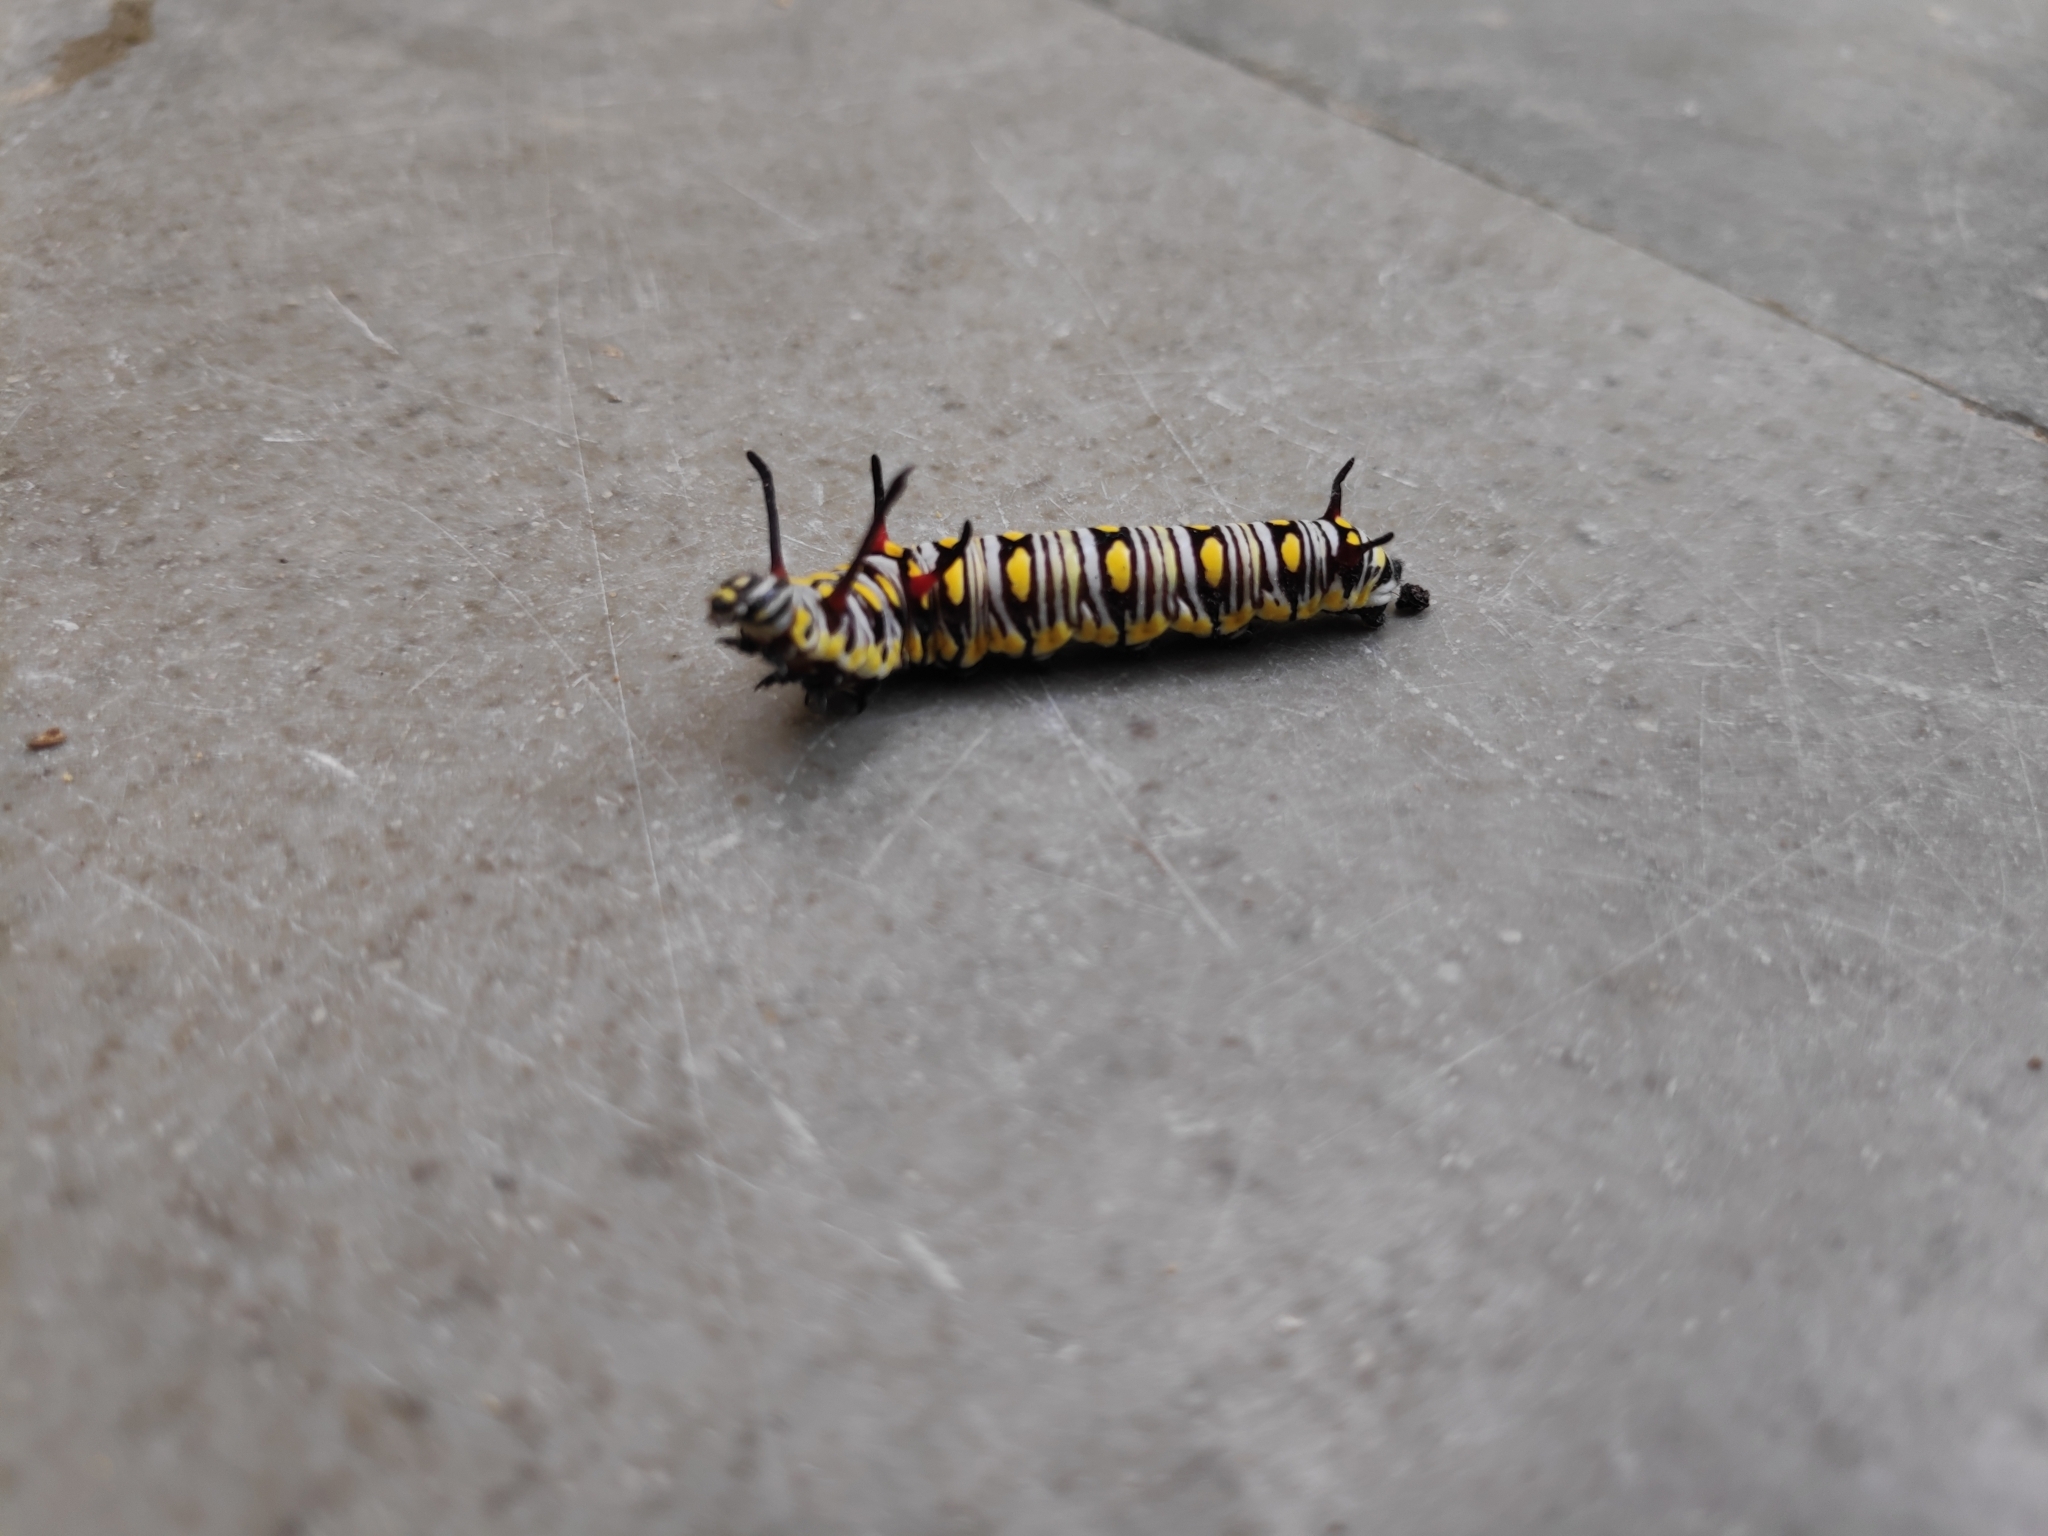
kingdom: Animalia
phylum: Arthropoda
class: Insecta
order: Lepidoptera
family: Nymphalidae
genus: Danaus
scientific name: Danaus chrysippus
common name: Plain tiger
